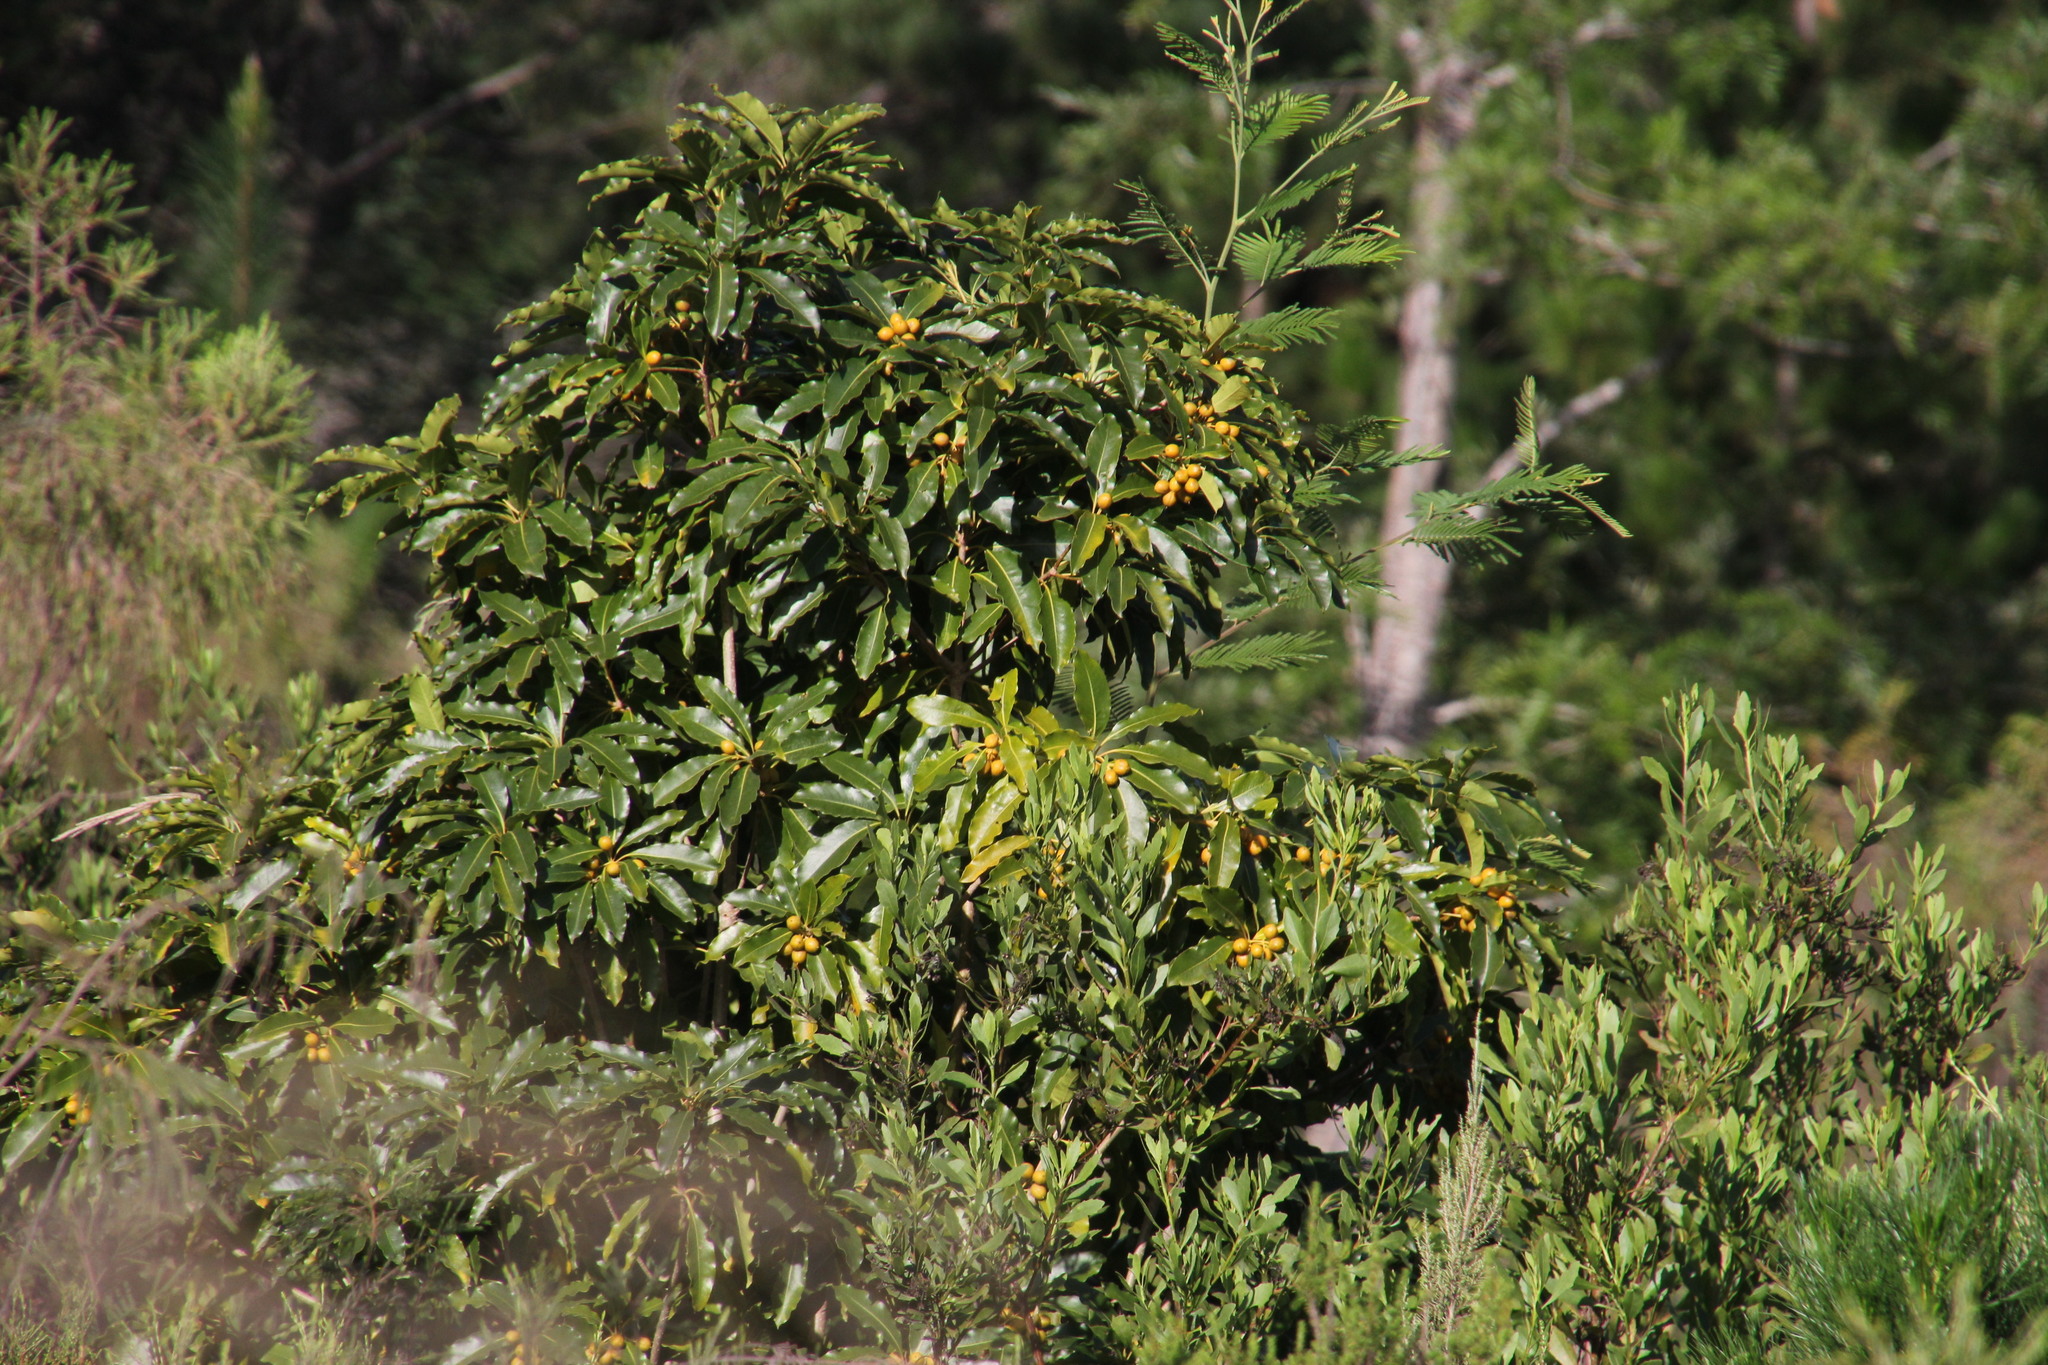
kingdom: Plantae
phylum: Tracheophyta
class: Magnoliopsida
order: Apiales
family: Pittosporaceae
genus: Pittosporum
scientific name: Pittosporum undulatum
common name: Australian cheesewood
